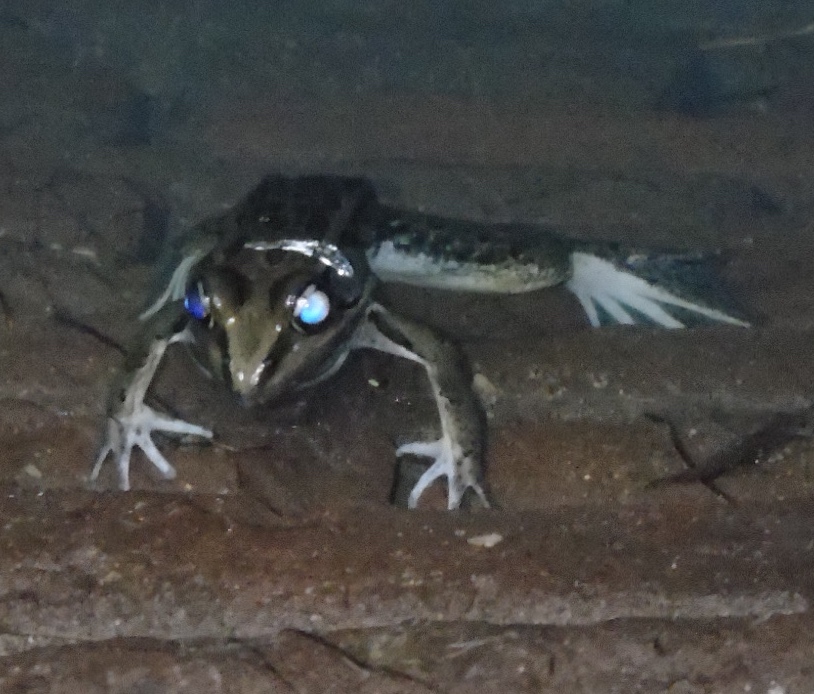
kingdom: Animalia
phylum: Chordata
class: Amphibia
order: Anura
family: Ranidae
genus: Lithobates
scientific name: Lithobates magnaocularis
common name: Northwest mexico leopard frog
